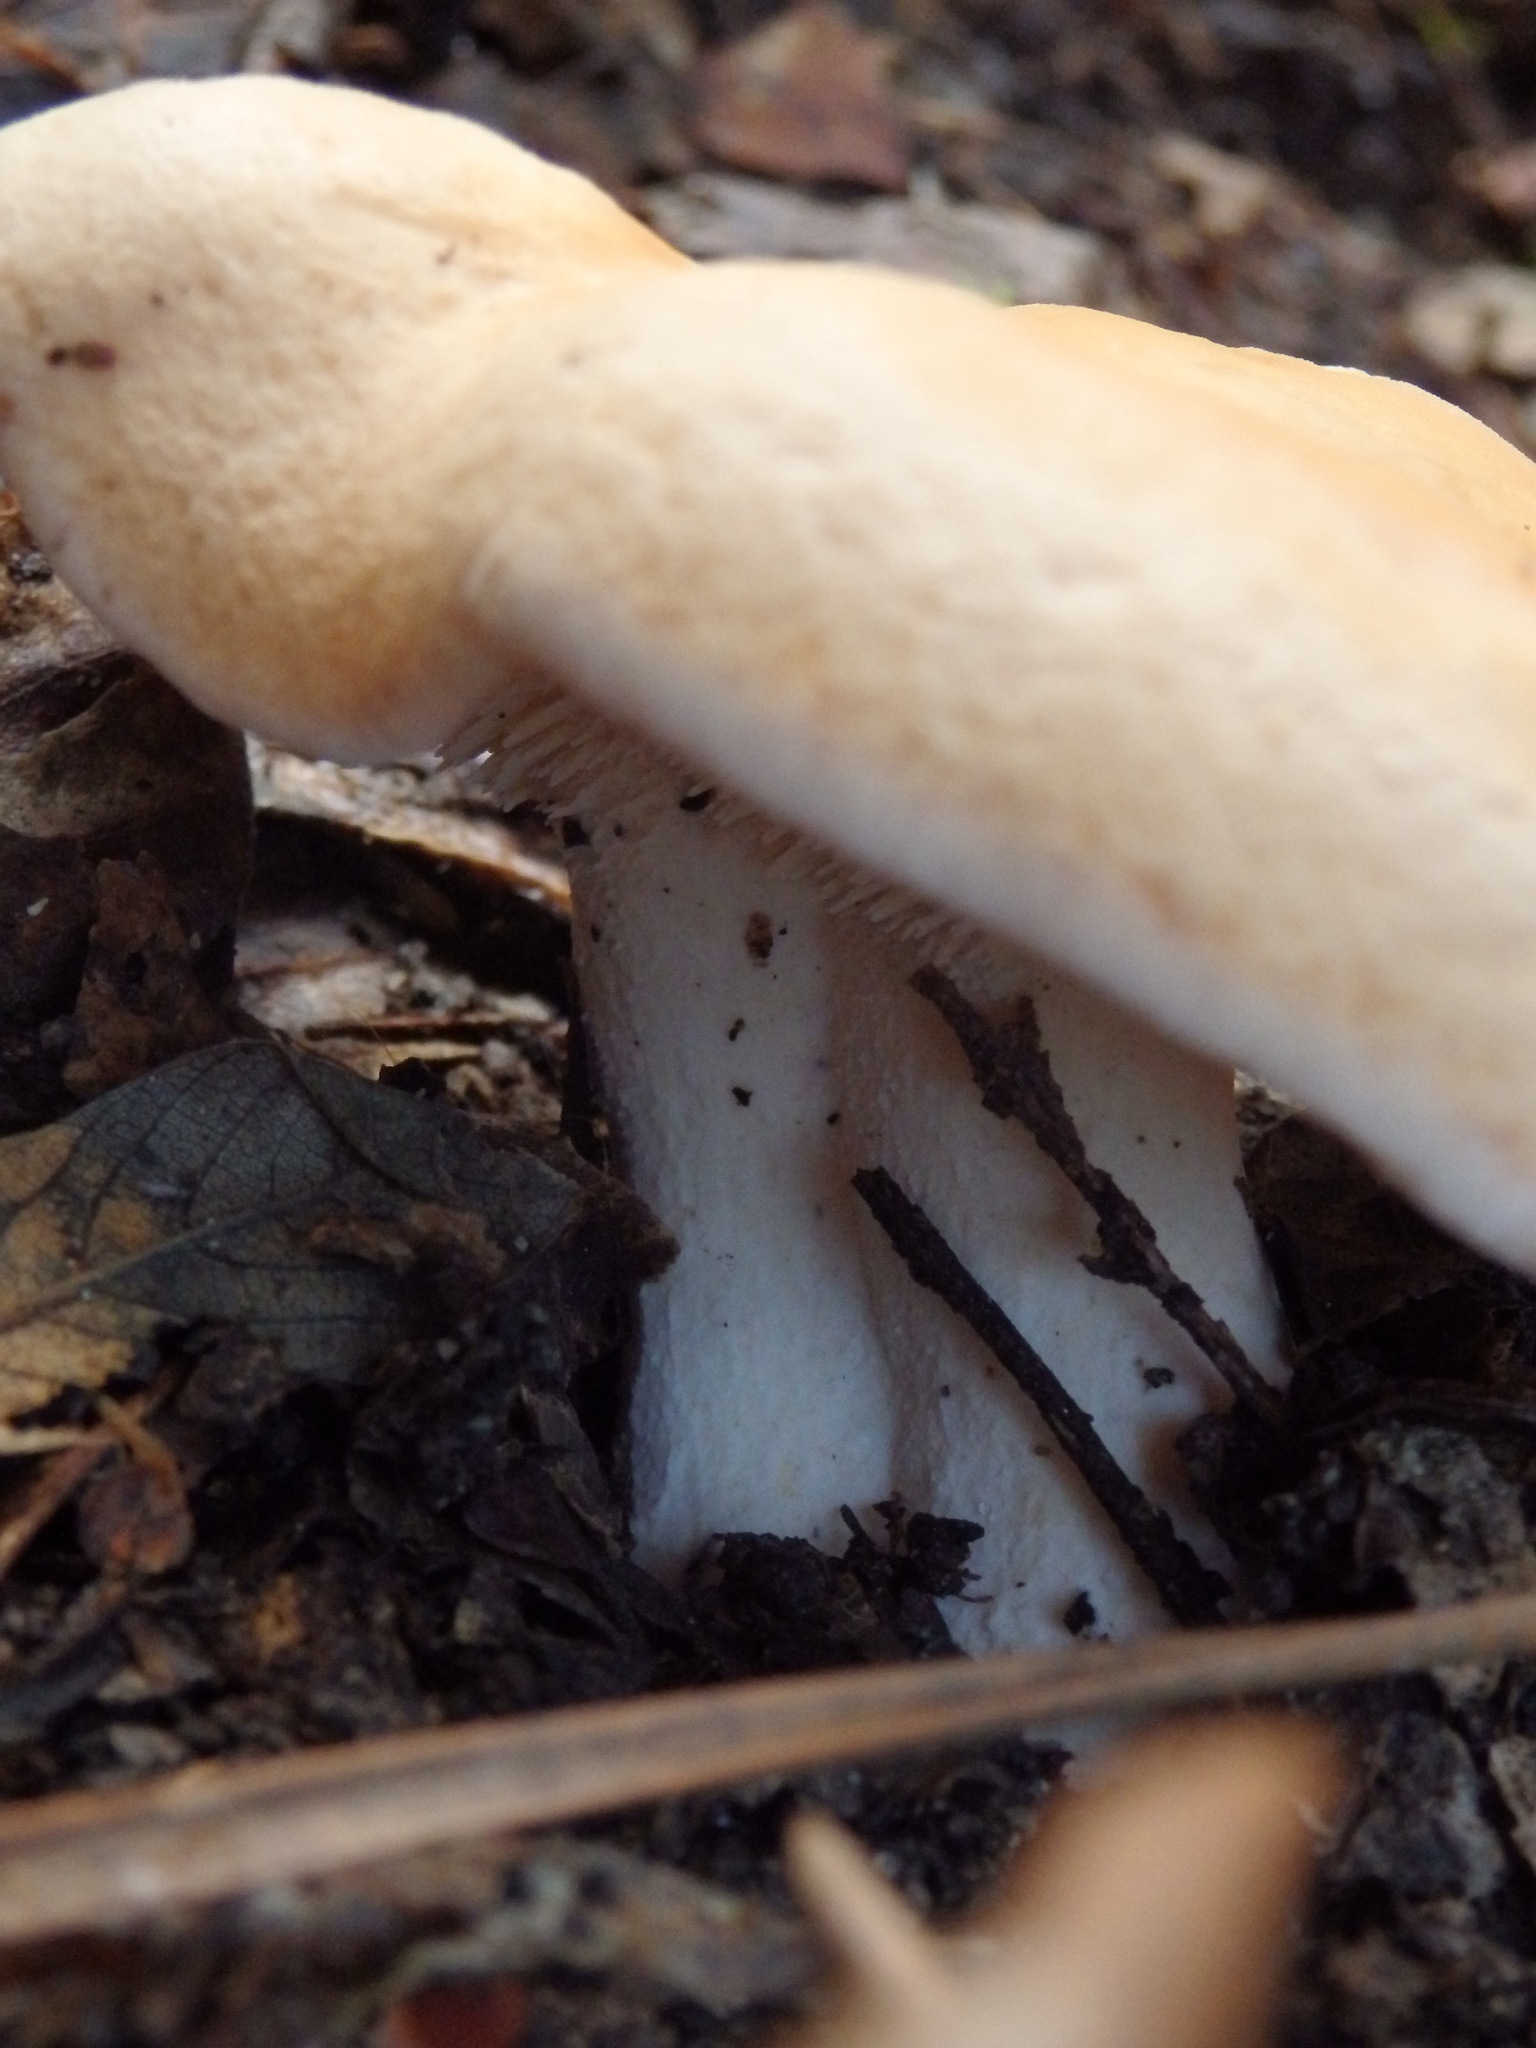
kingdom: Fungi
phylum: Basidiomycota
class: Agaricomycetes
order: Cantharellales
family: Hydnaceae
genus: Hydnum
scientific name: Hydnum repandum
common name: Wood hedgehog
